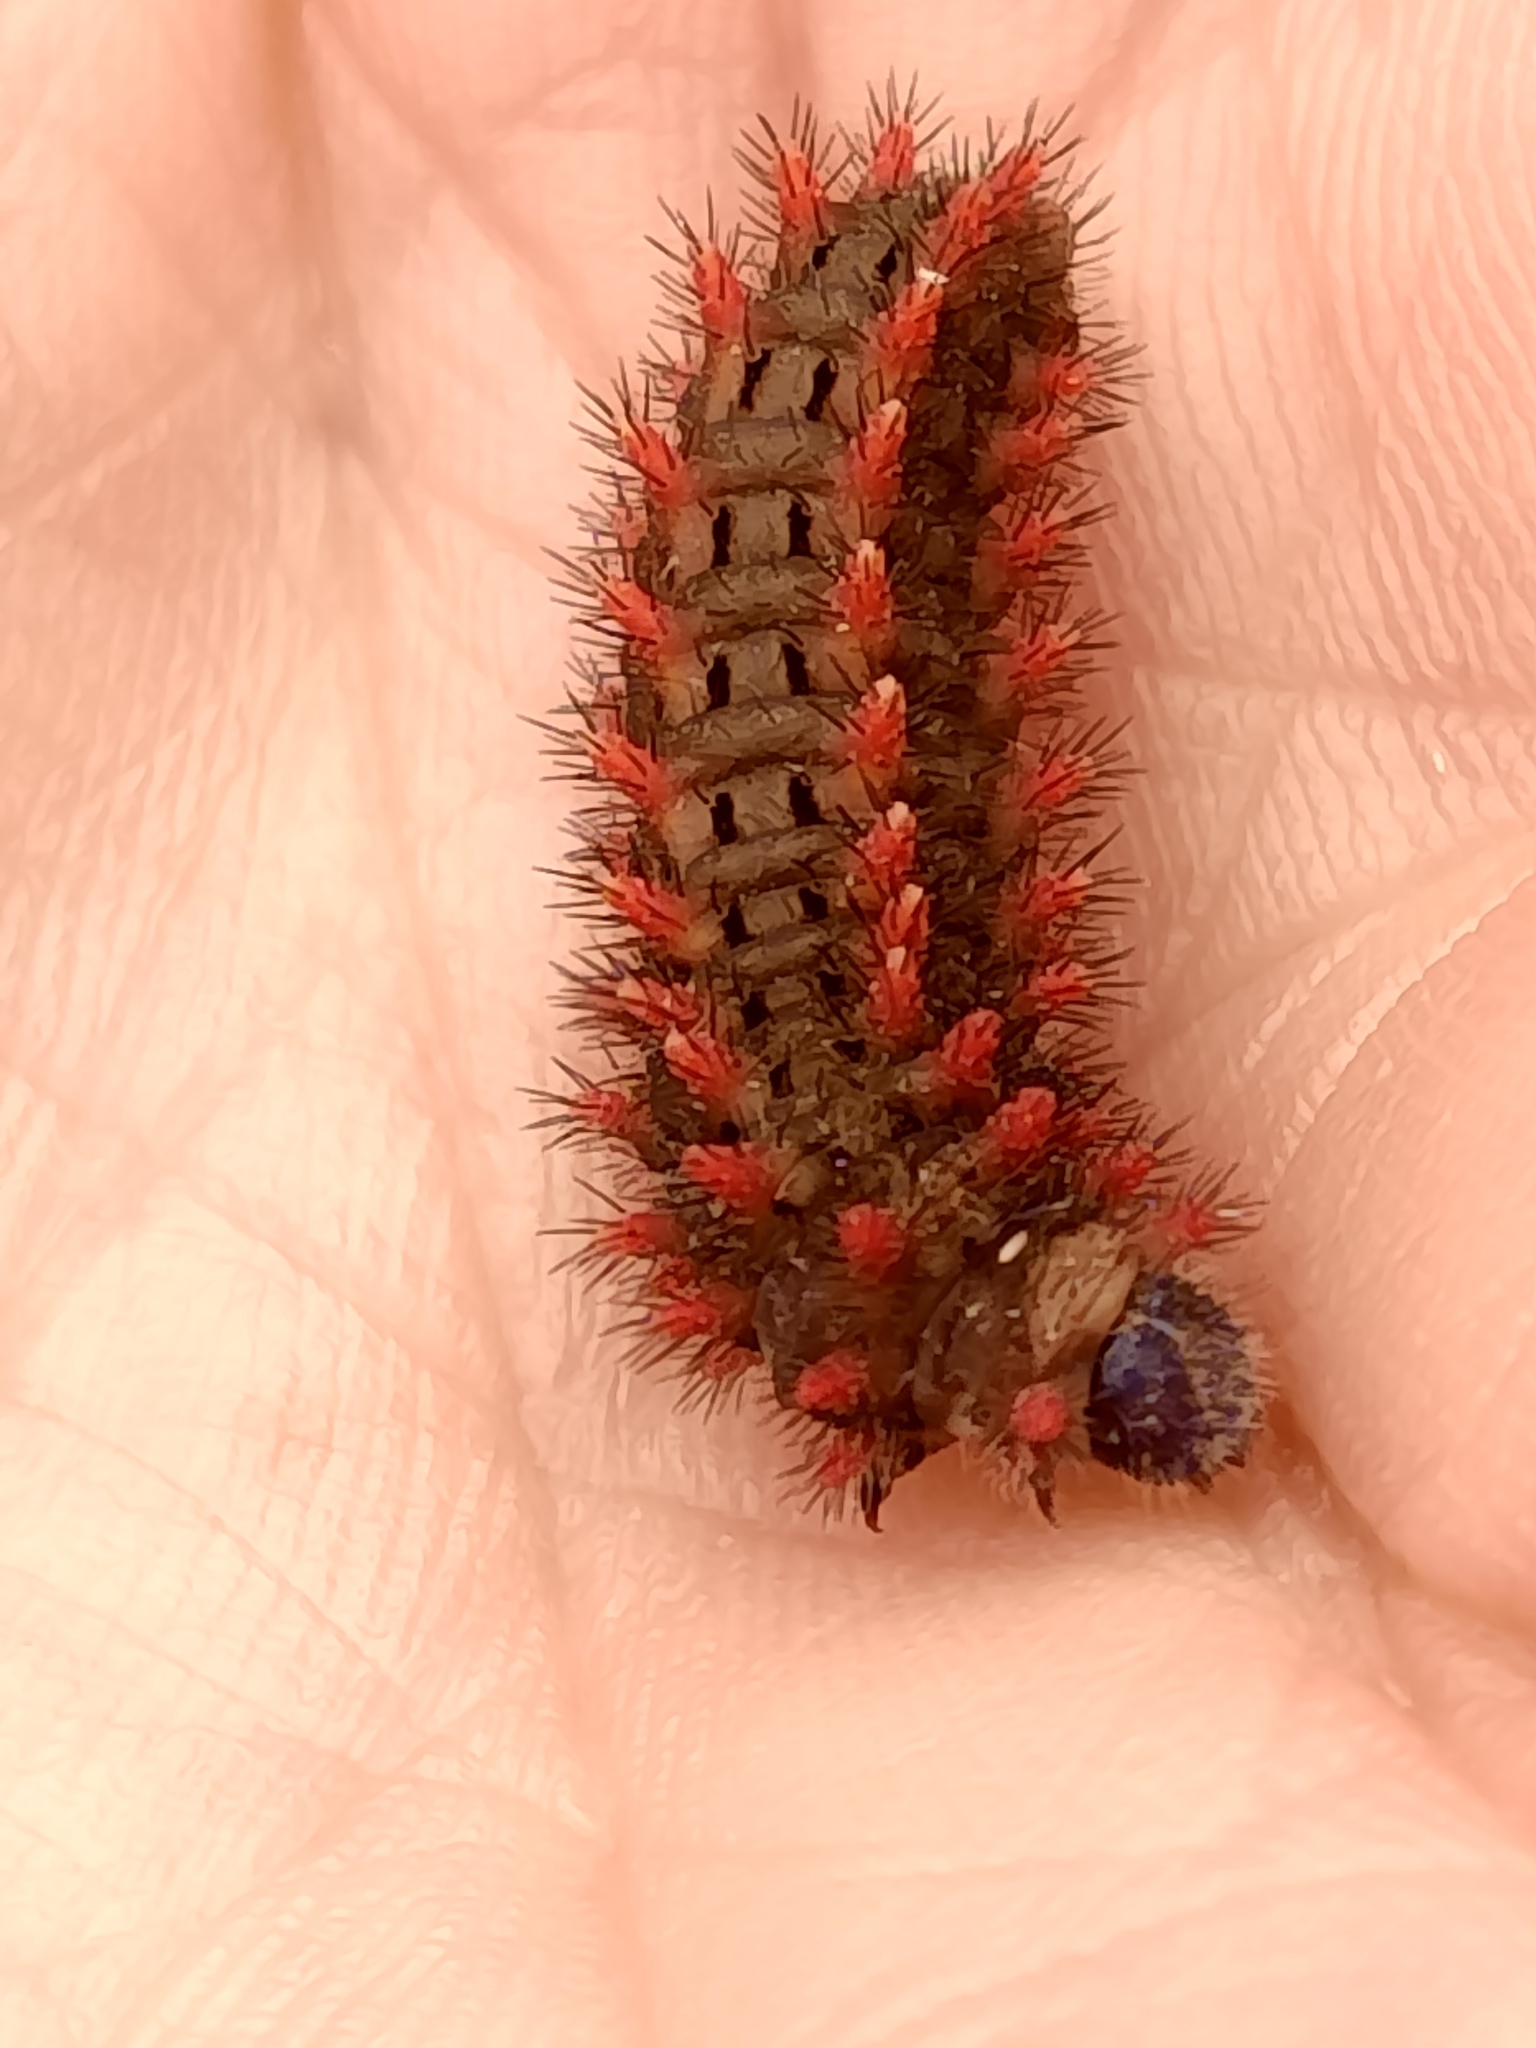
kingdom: Animalia
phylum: Arthropoda
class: Insecta
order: Lepidoptera
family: Papilionidae
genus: Zerynthia
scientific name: Zerynthia rumina
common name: Spanish festoon
